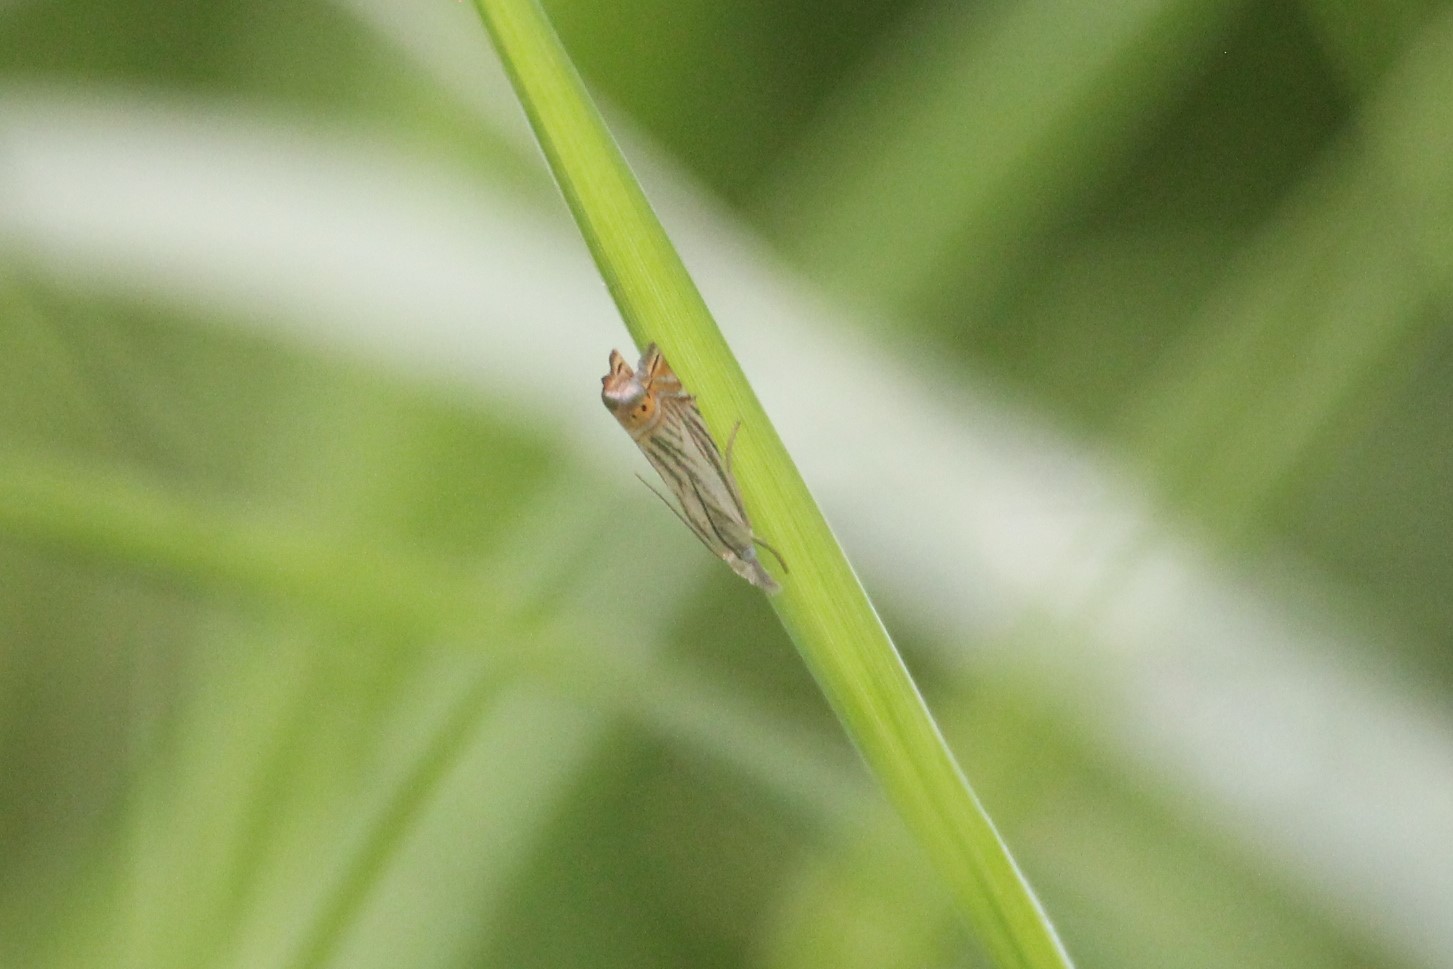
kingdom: Animalia
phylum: Arthropoda
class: Insecta
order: Lepidoptera
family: Crambidae
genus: Chrysoteuchia
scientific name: Chrysoteuchia topiarius
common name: Topiary grass-veneer
